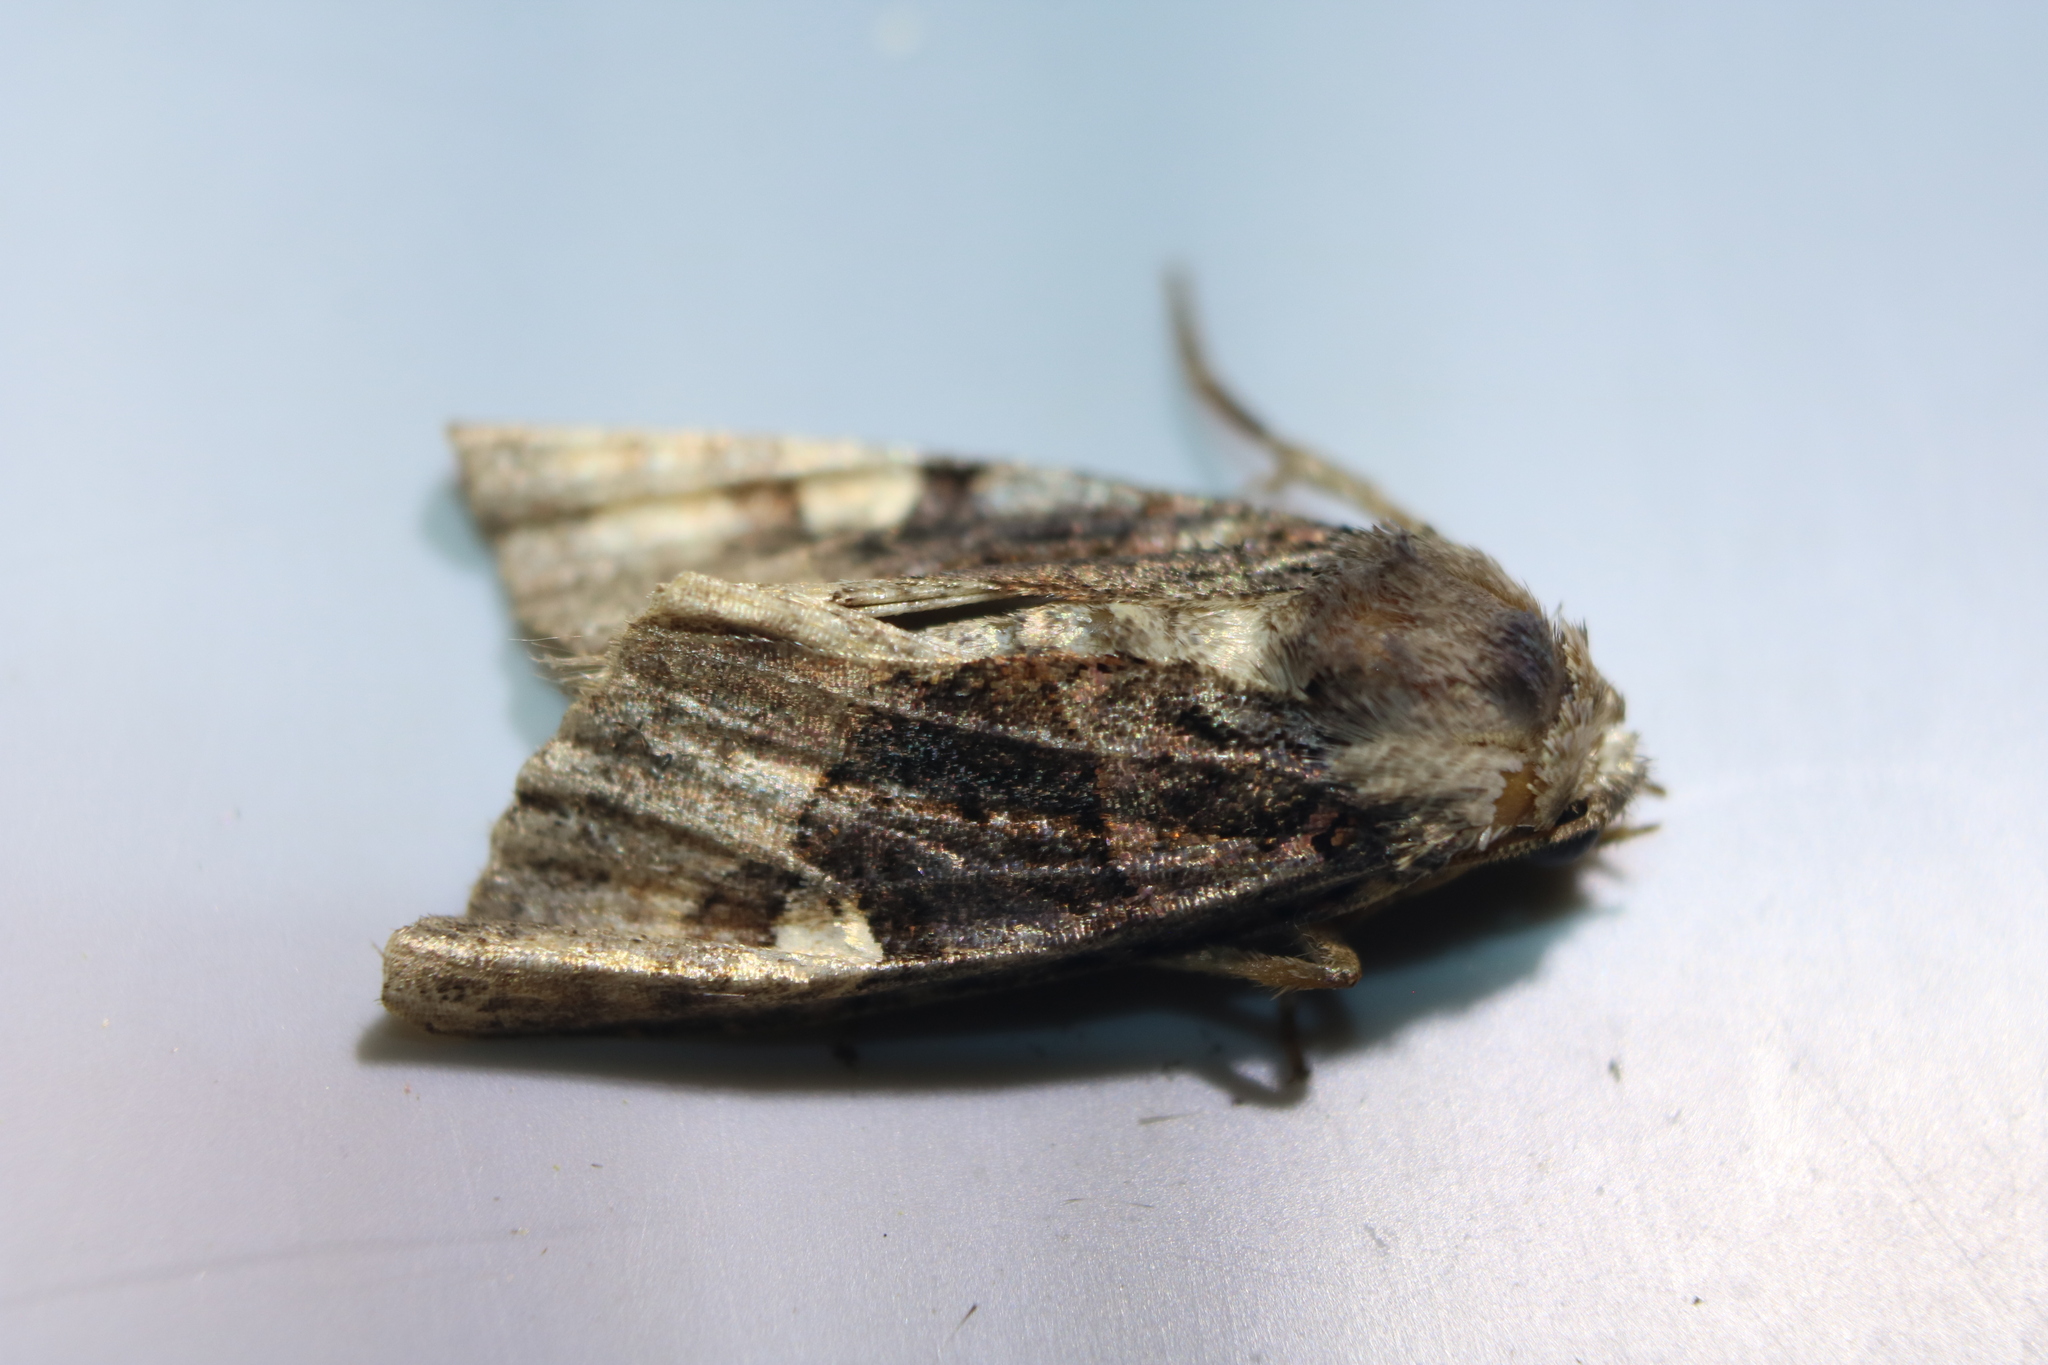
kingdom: Animalia
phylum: Arthropoda
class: Insecta
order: Lepidoptera
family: Noctuidae
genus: Euplexia
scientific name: Euplexia benesimilis
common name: American angle shades
